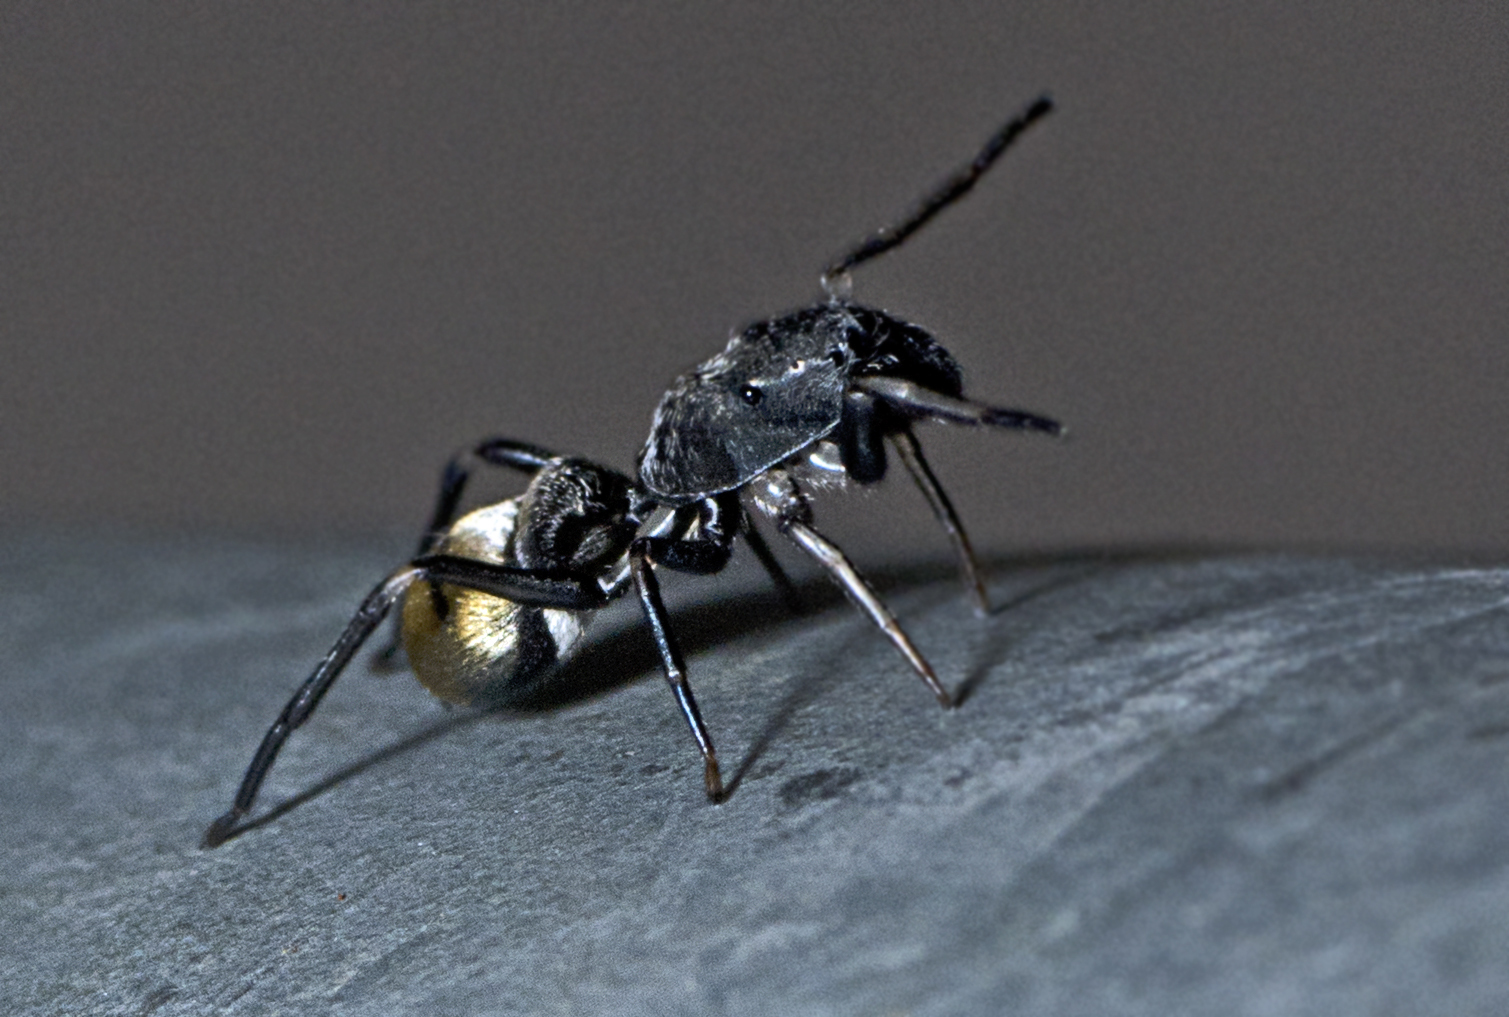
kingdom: Animalia
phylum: Arthropoda
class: Arachnida
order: Araneae
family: Salticidae
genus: Myrmarachne
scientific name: Myrmarachne erythrocephala
